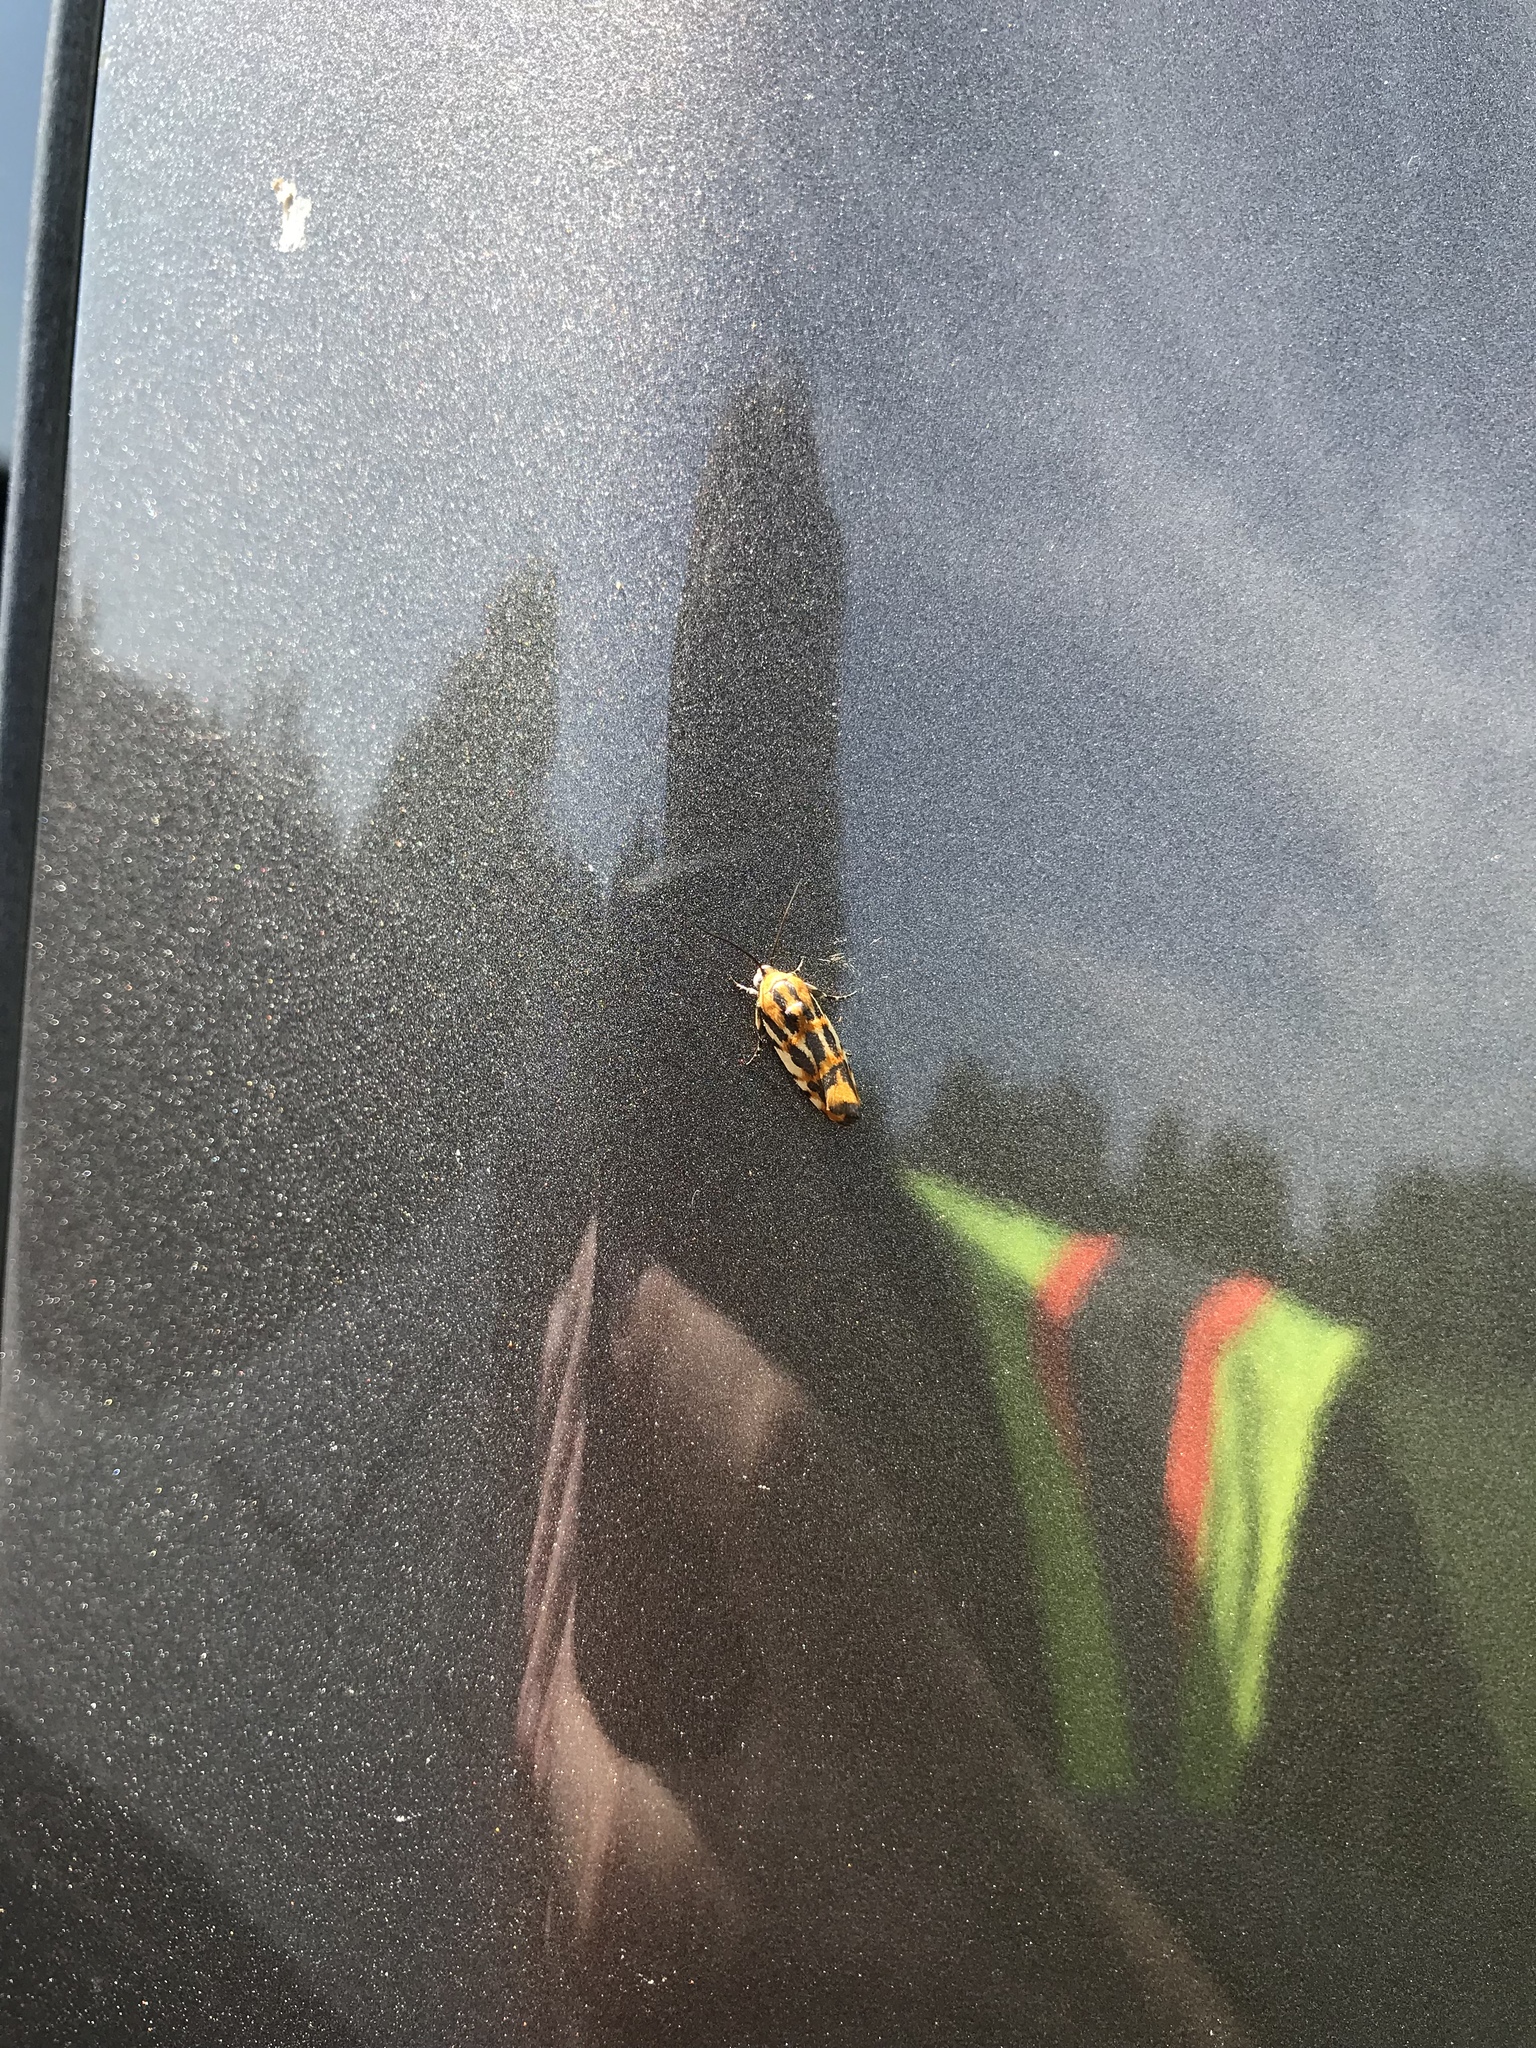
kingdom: Animalia
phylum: Arthropoda
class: Insecta
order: Lepidoptera
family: Noctuidae
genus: Acontia
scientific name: Acontia leo
